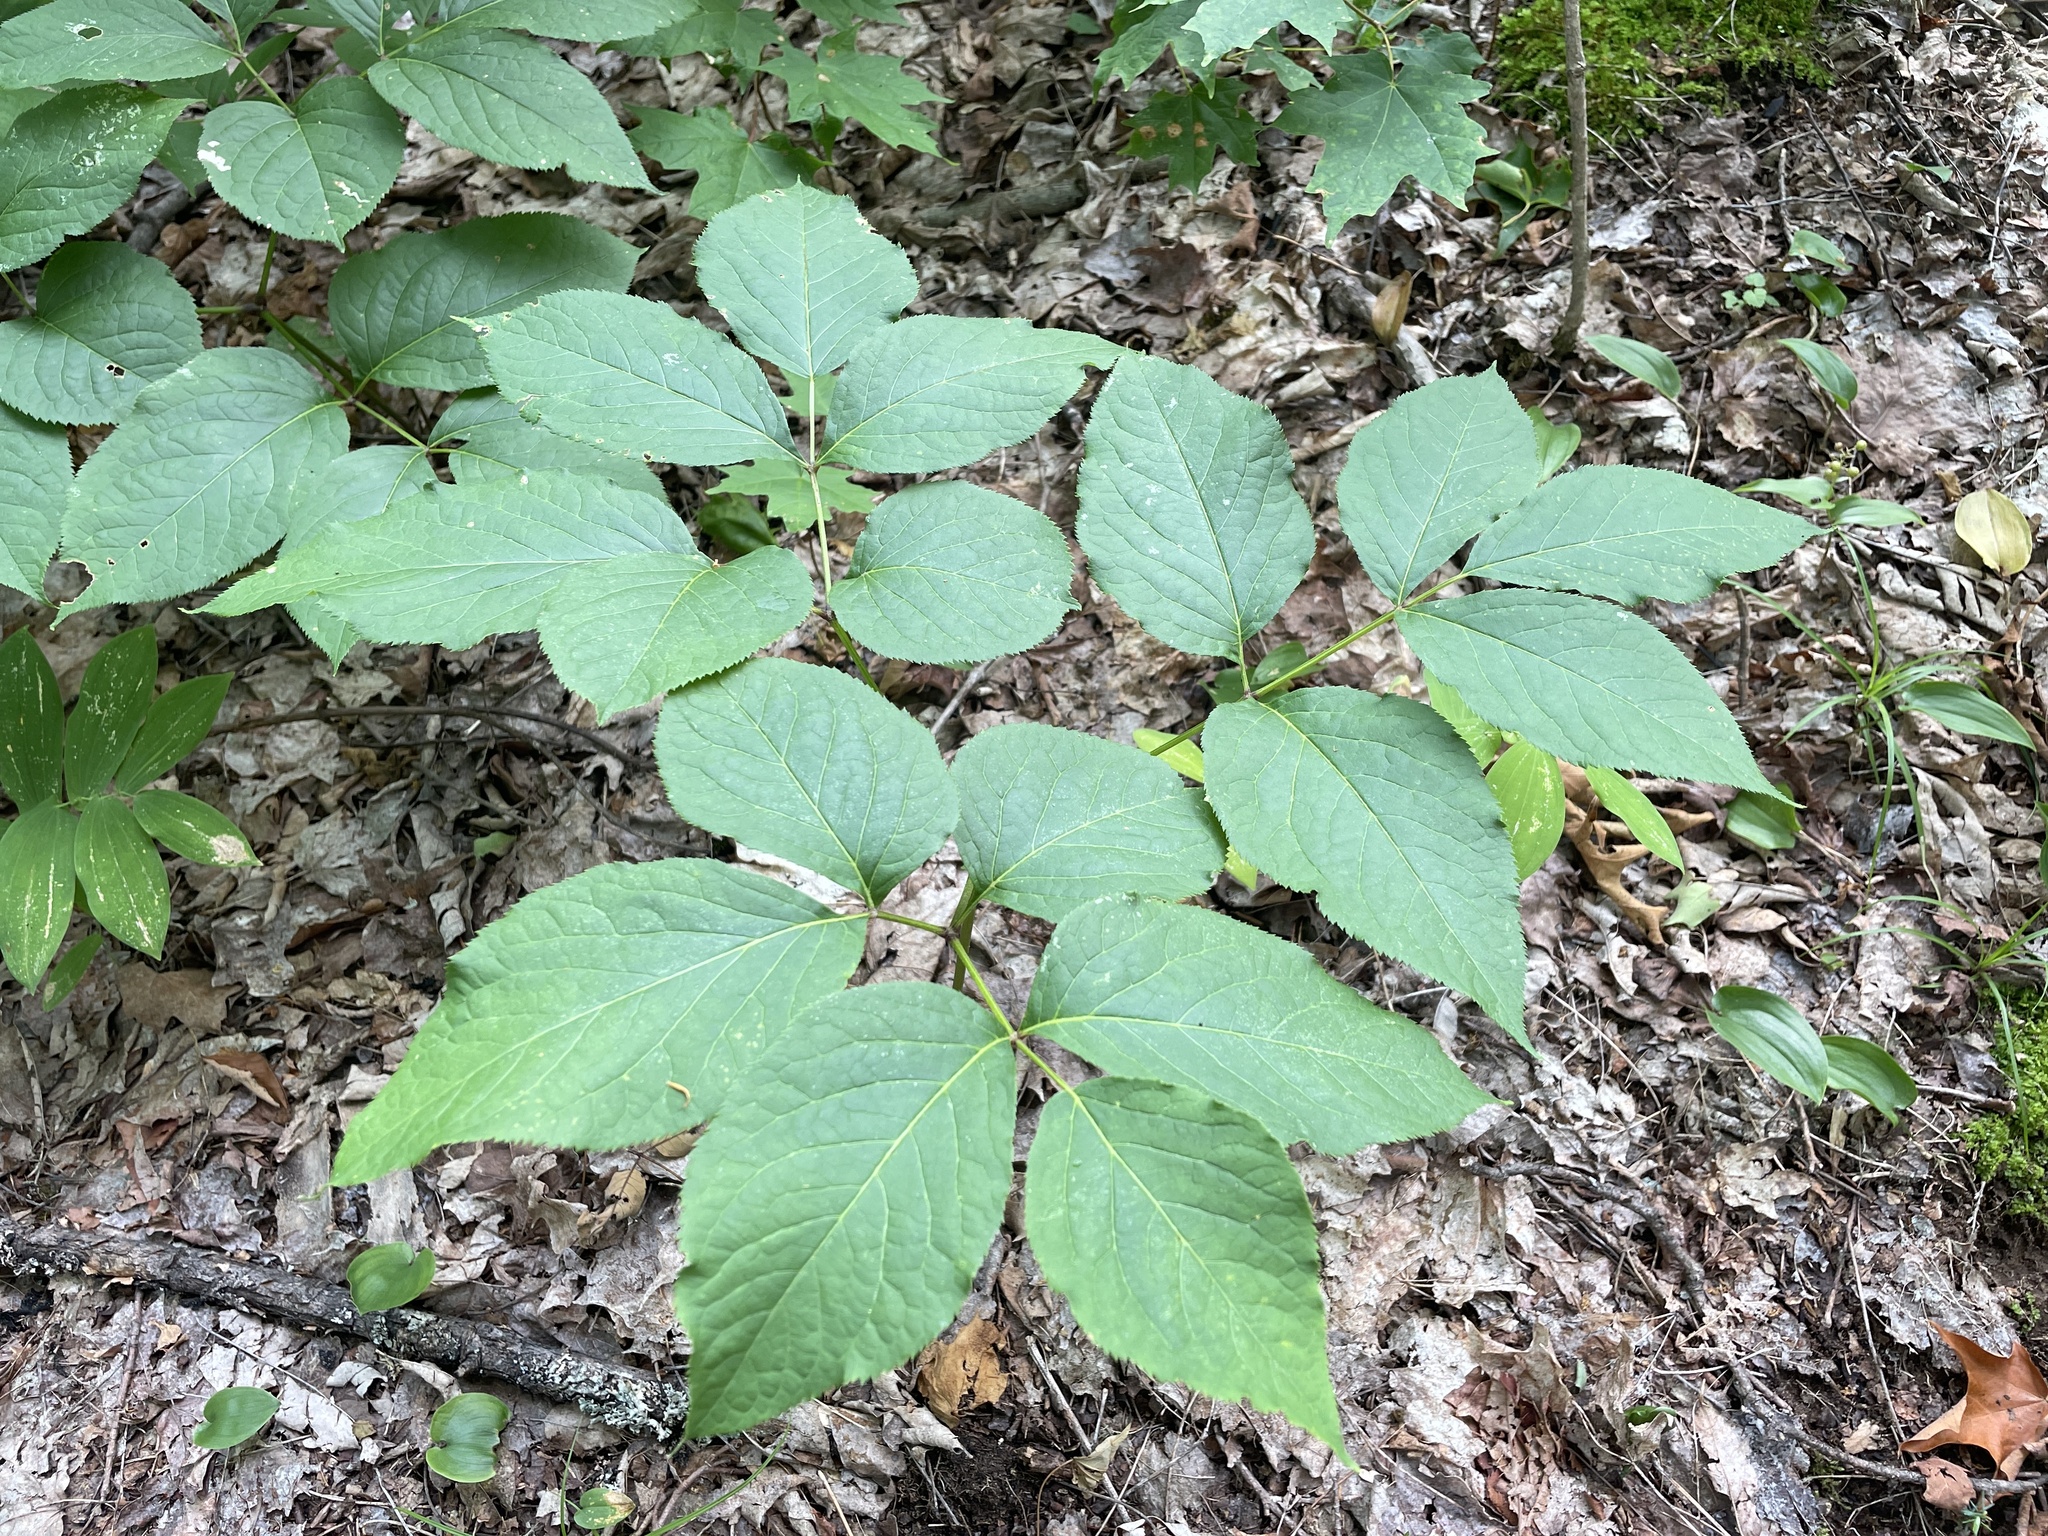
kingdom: Plantae
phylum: Tracheophyta
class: Magnoliopsida
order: Apiales
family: Araliaceae
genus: Aralia
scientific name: Aralia nudicaulis
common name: Wild sarsaparilla
